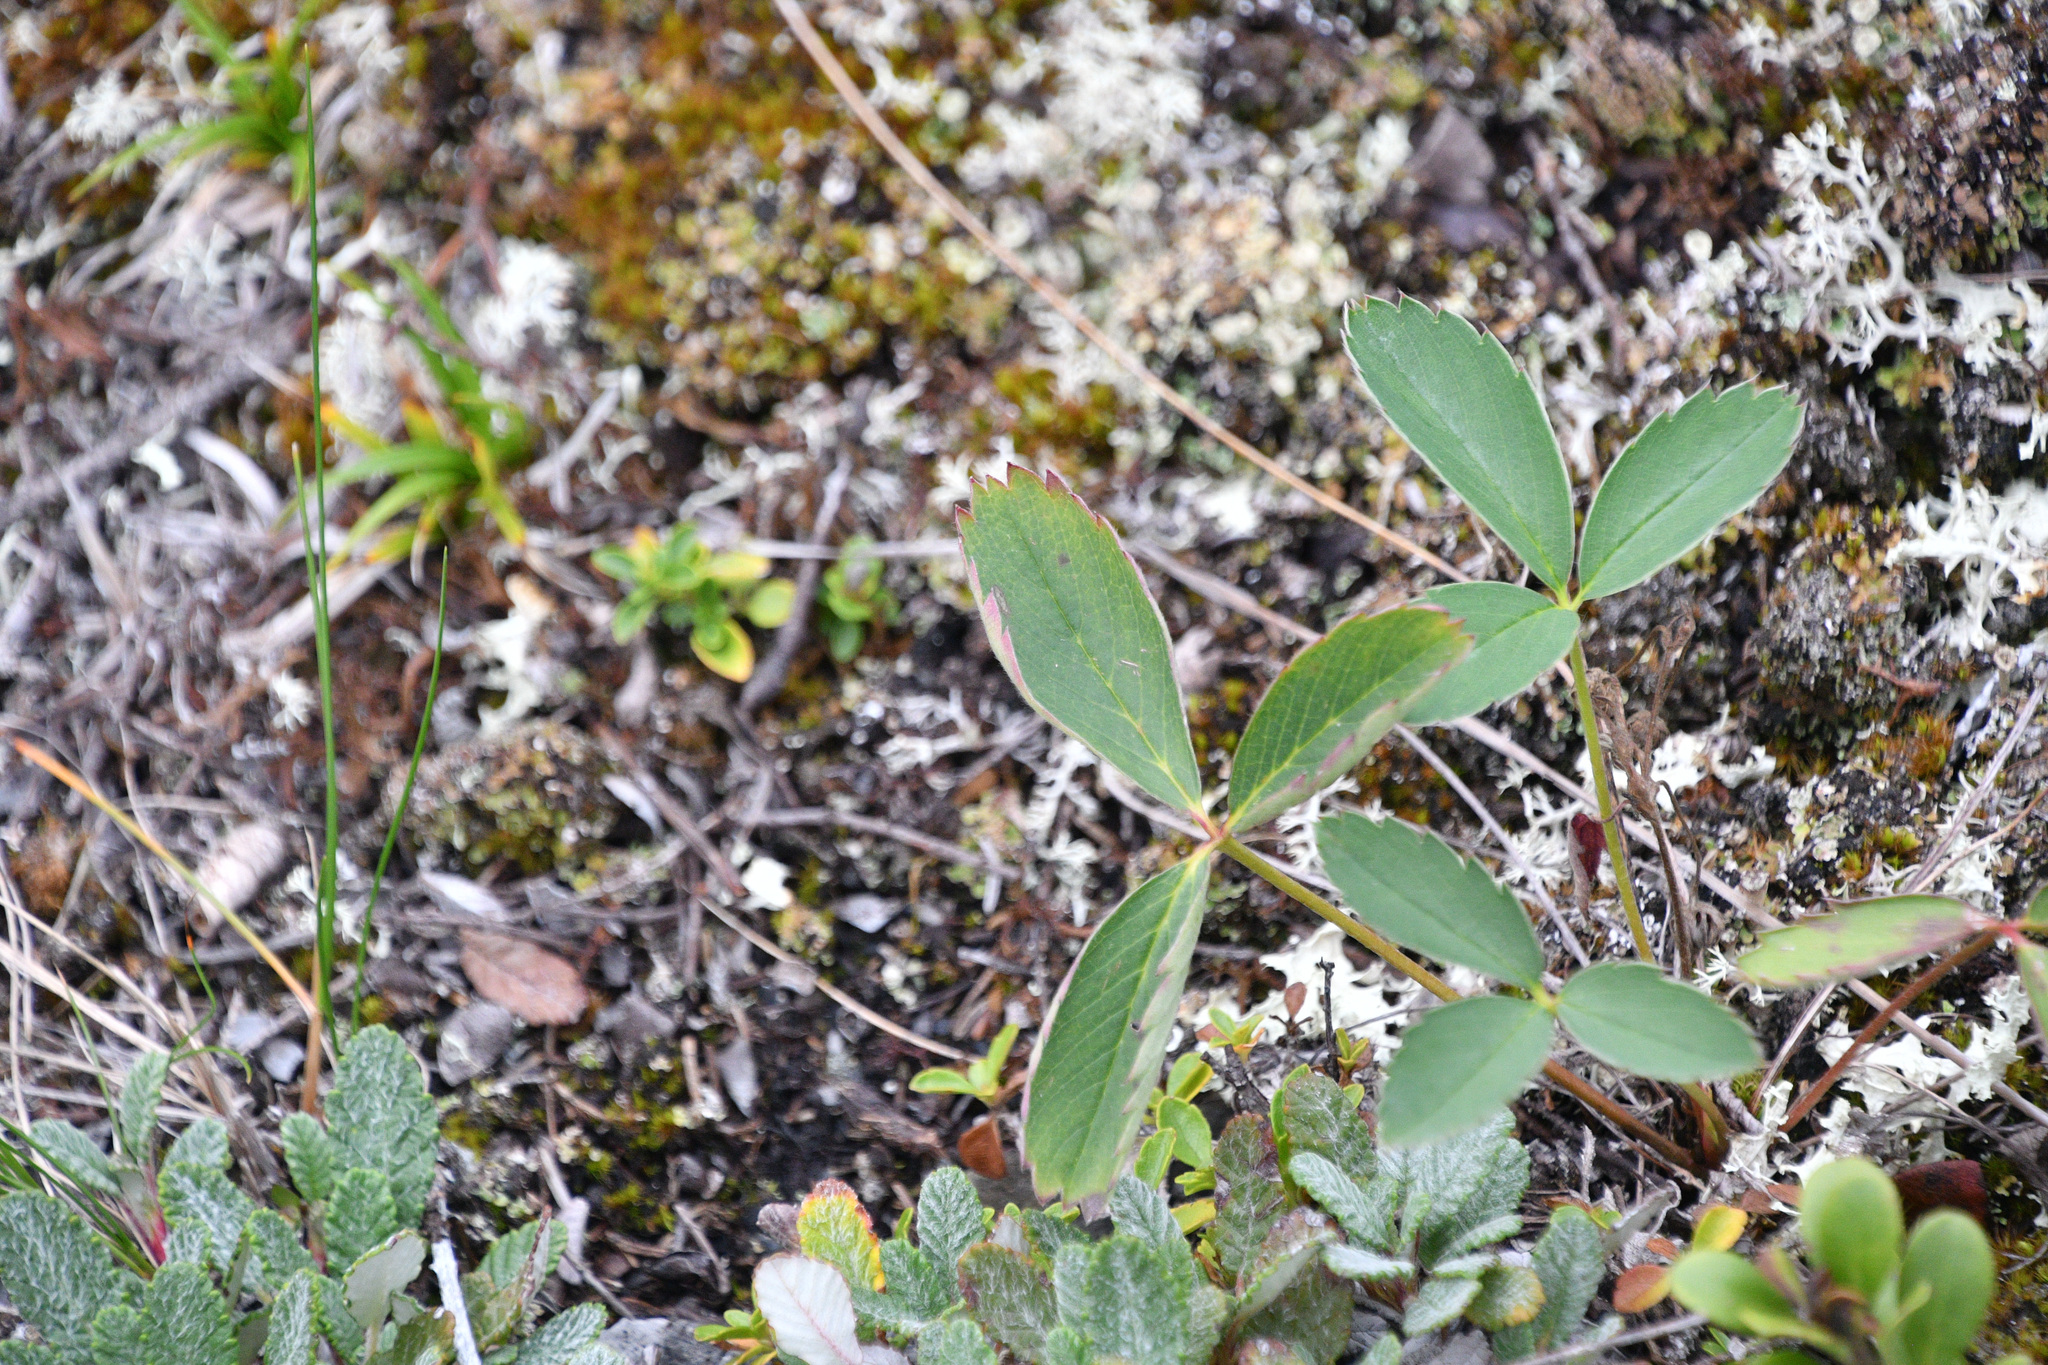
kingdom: Plantae
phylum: Tracheophyta
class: Magnoliopsida
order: Rosales
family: Rosaceae
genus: Fragaria
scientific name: Fragaria virginiana
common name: Thickleaved wild strawberry
